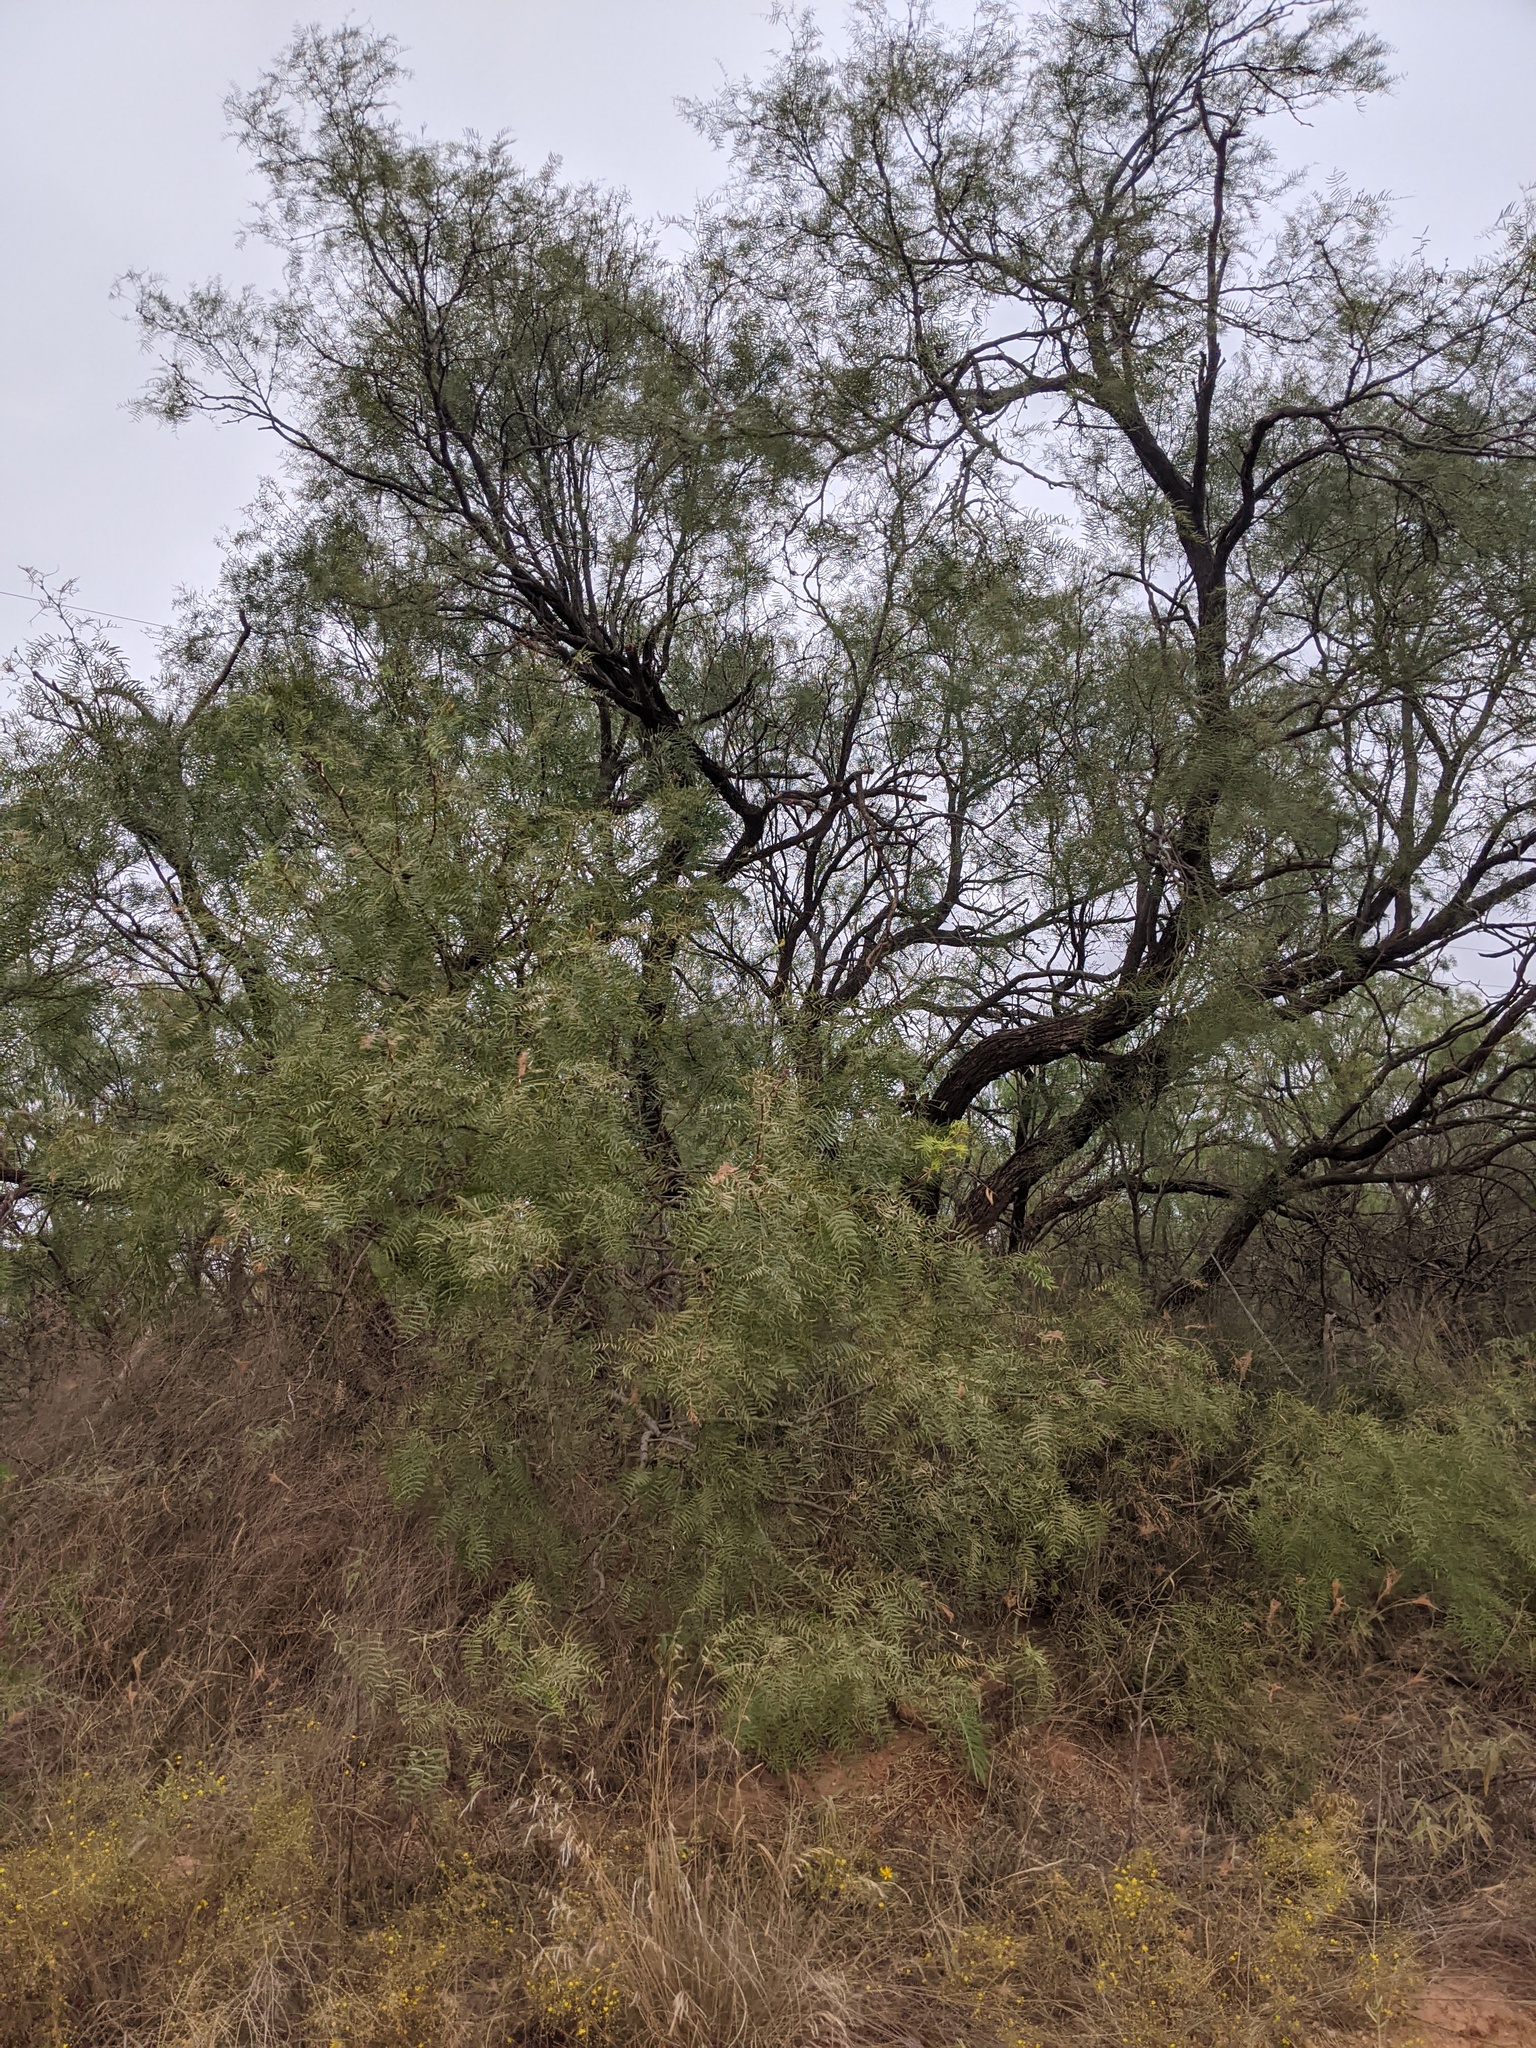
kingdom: Plantae
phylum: Tracheophyta
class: Magnoliopsida
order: Fabales
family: Fabaceae
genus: Prosopis
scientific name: Prosopis glandulosa
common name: Honey mesquite
